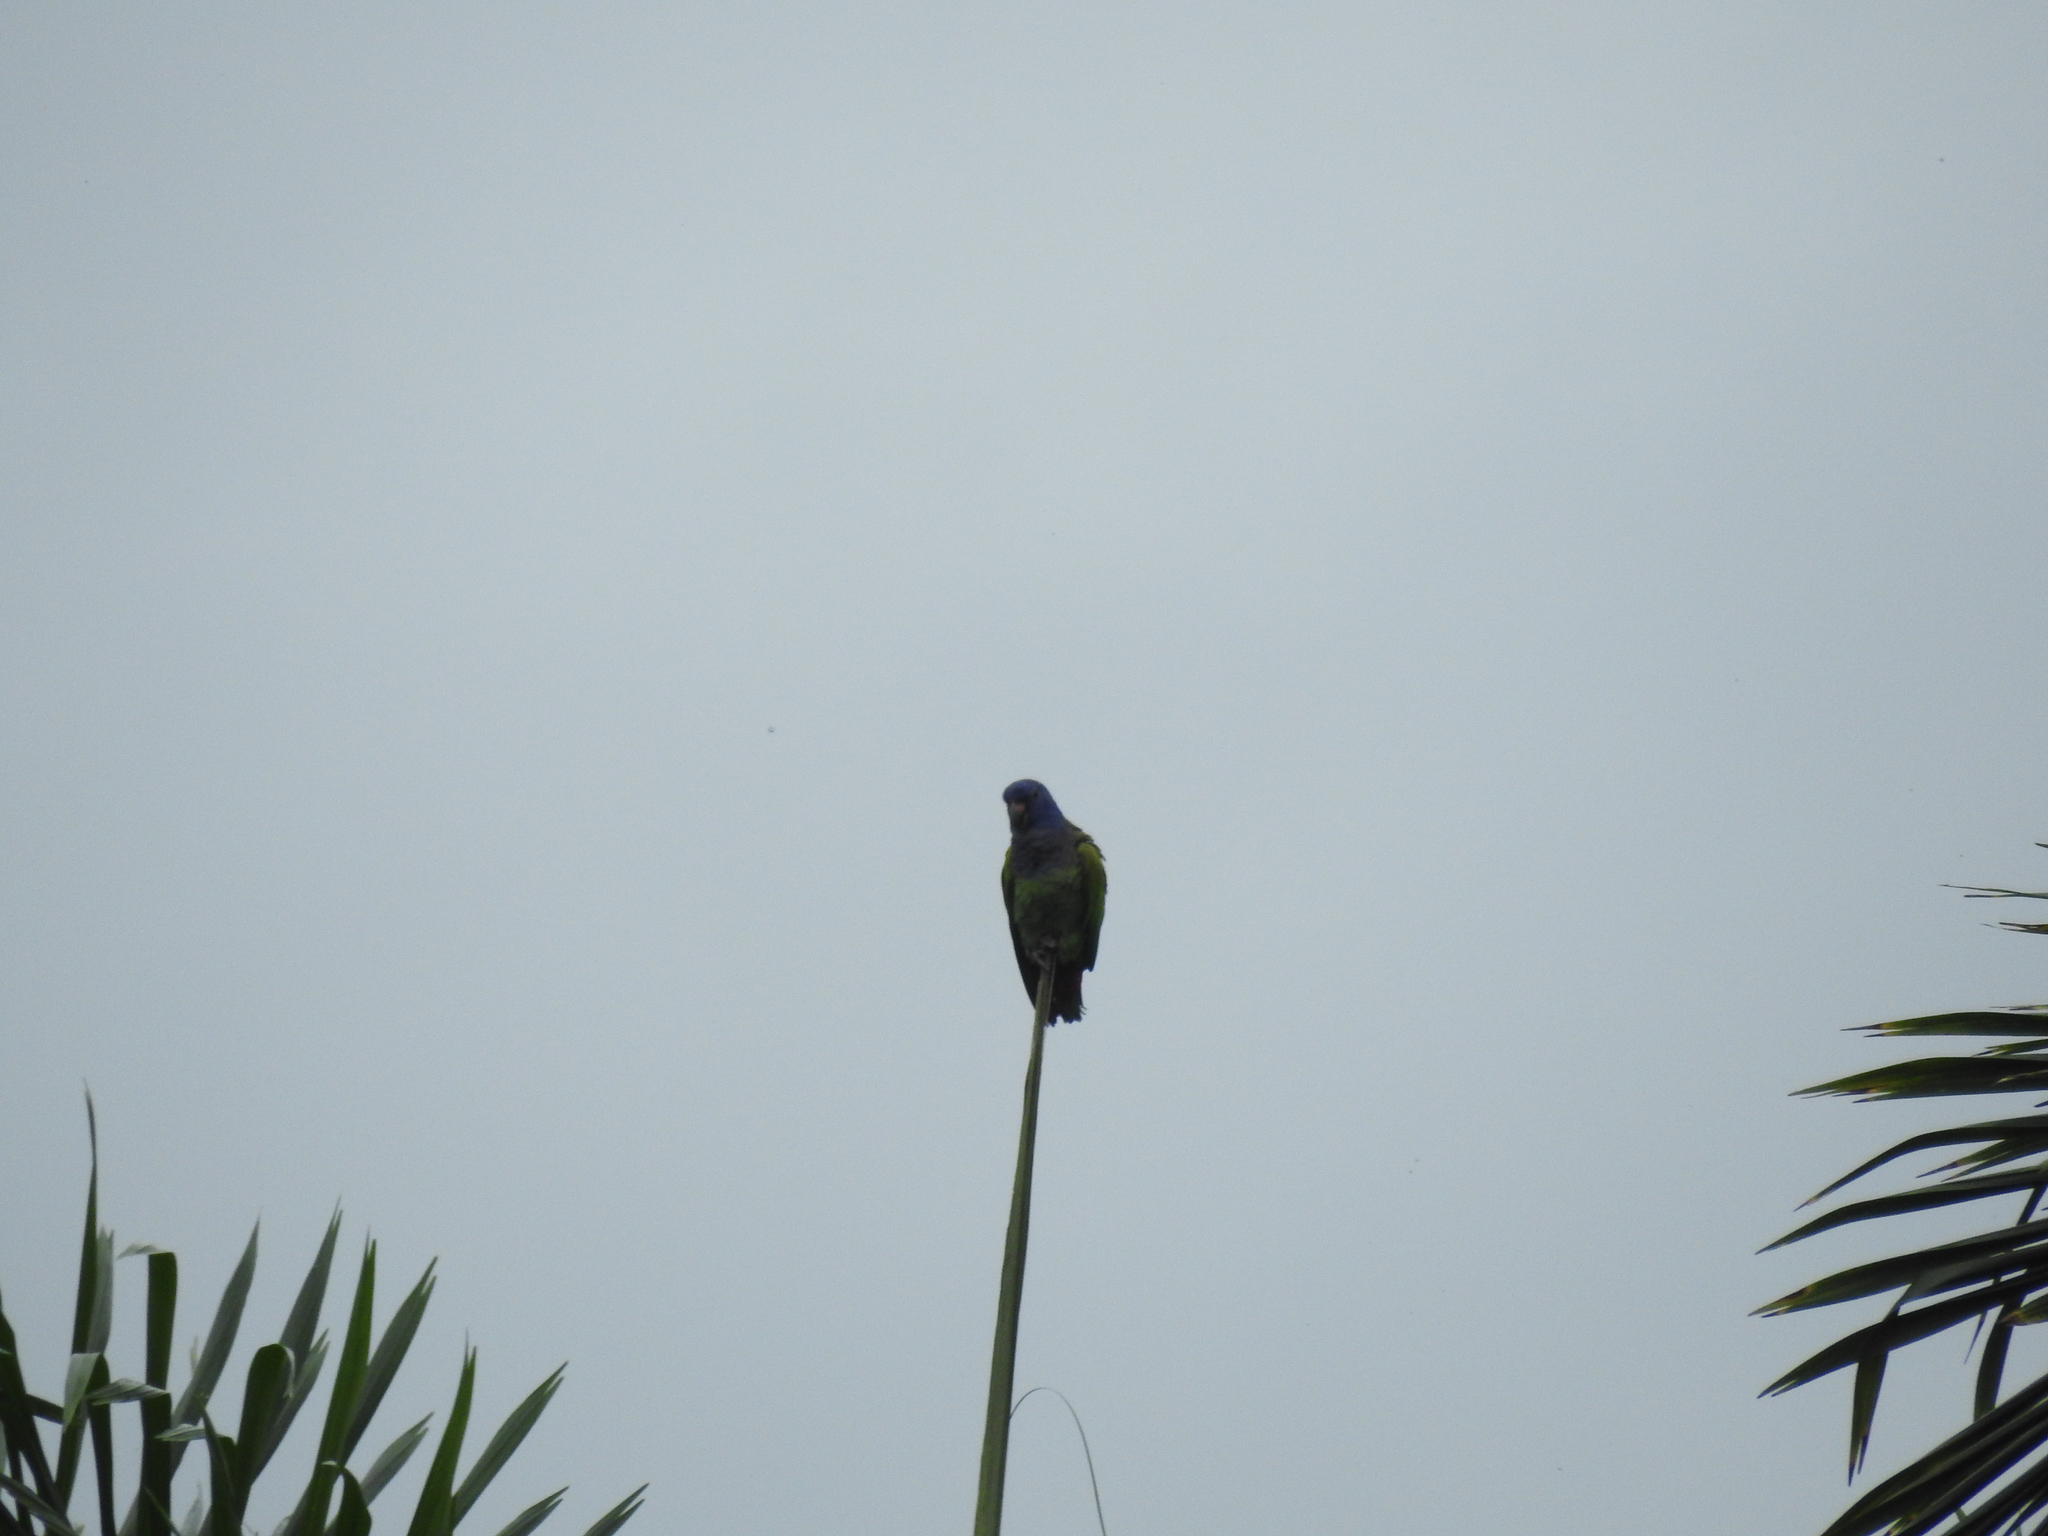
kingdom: Animalia
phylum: Chordata
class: Aves
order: Psittaciformes
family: Psittacidae
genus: Pionus
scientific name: Pionus menstruus
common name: Blue-headed parrot
